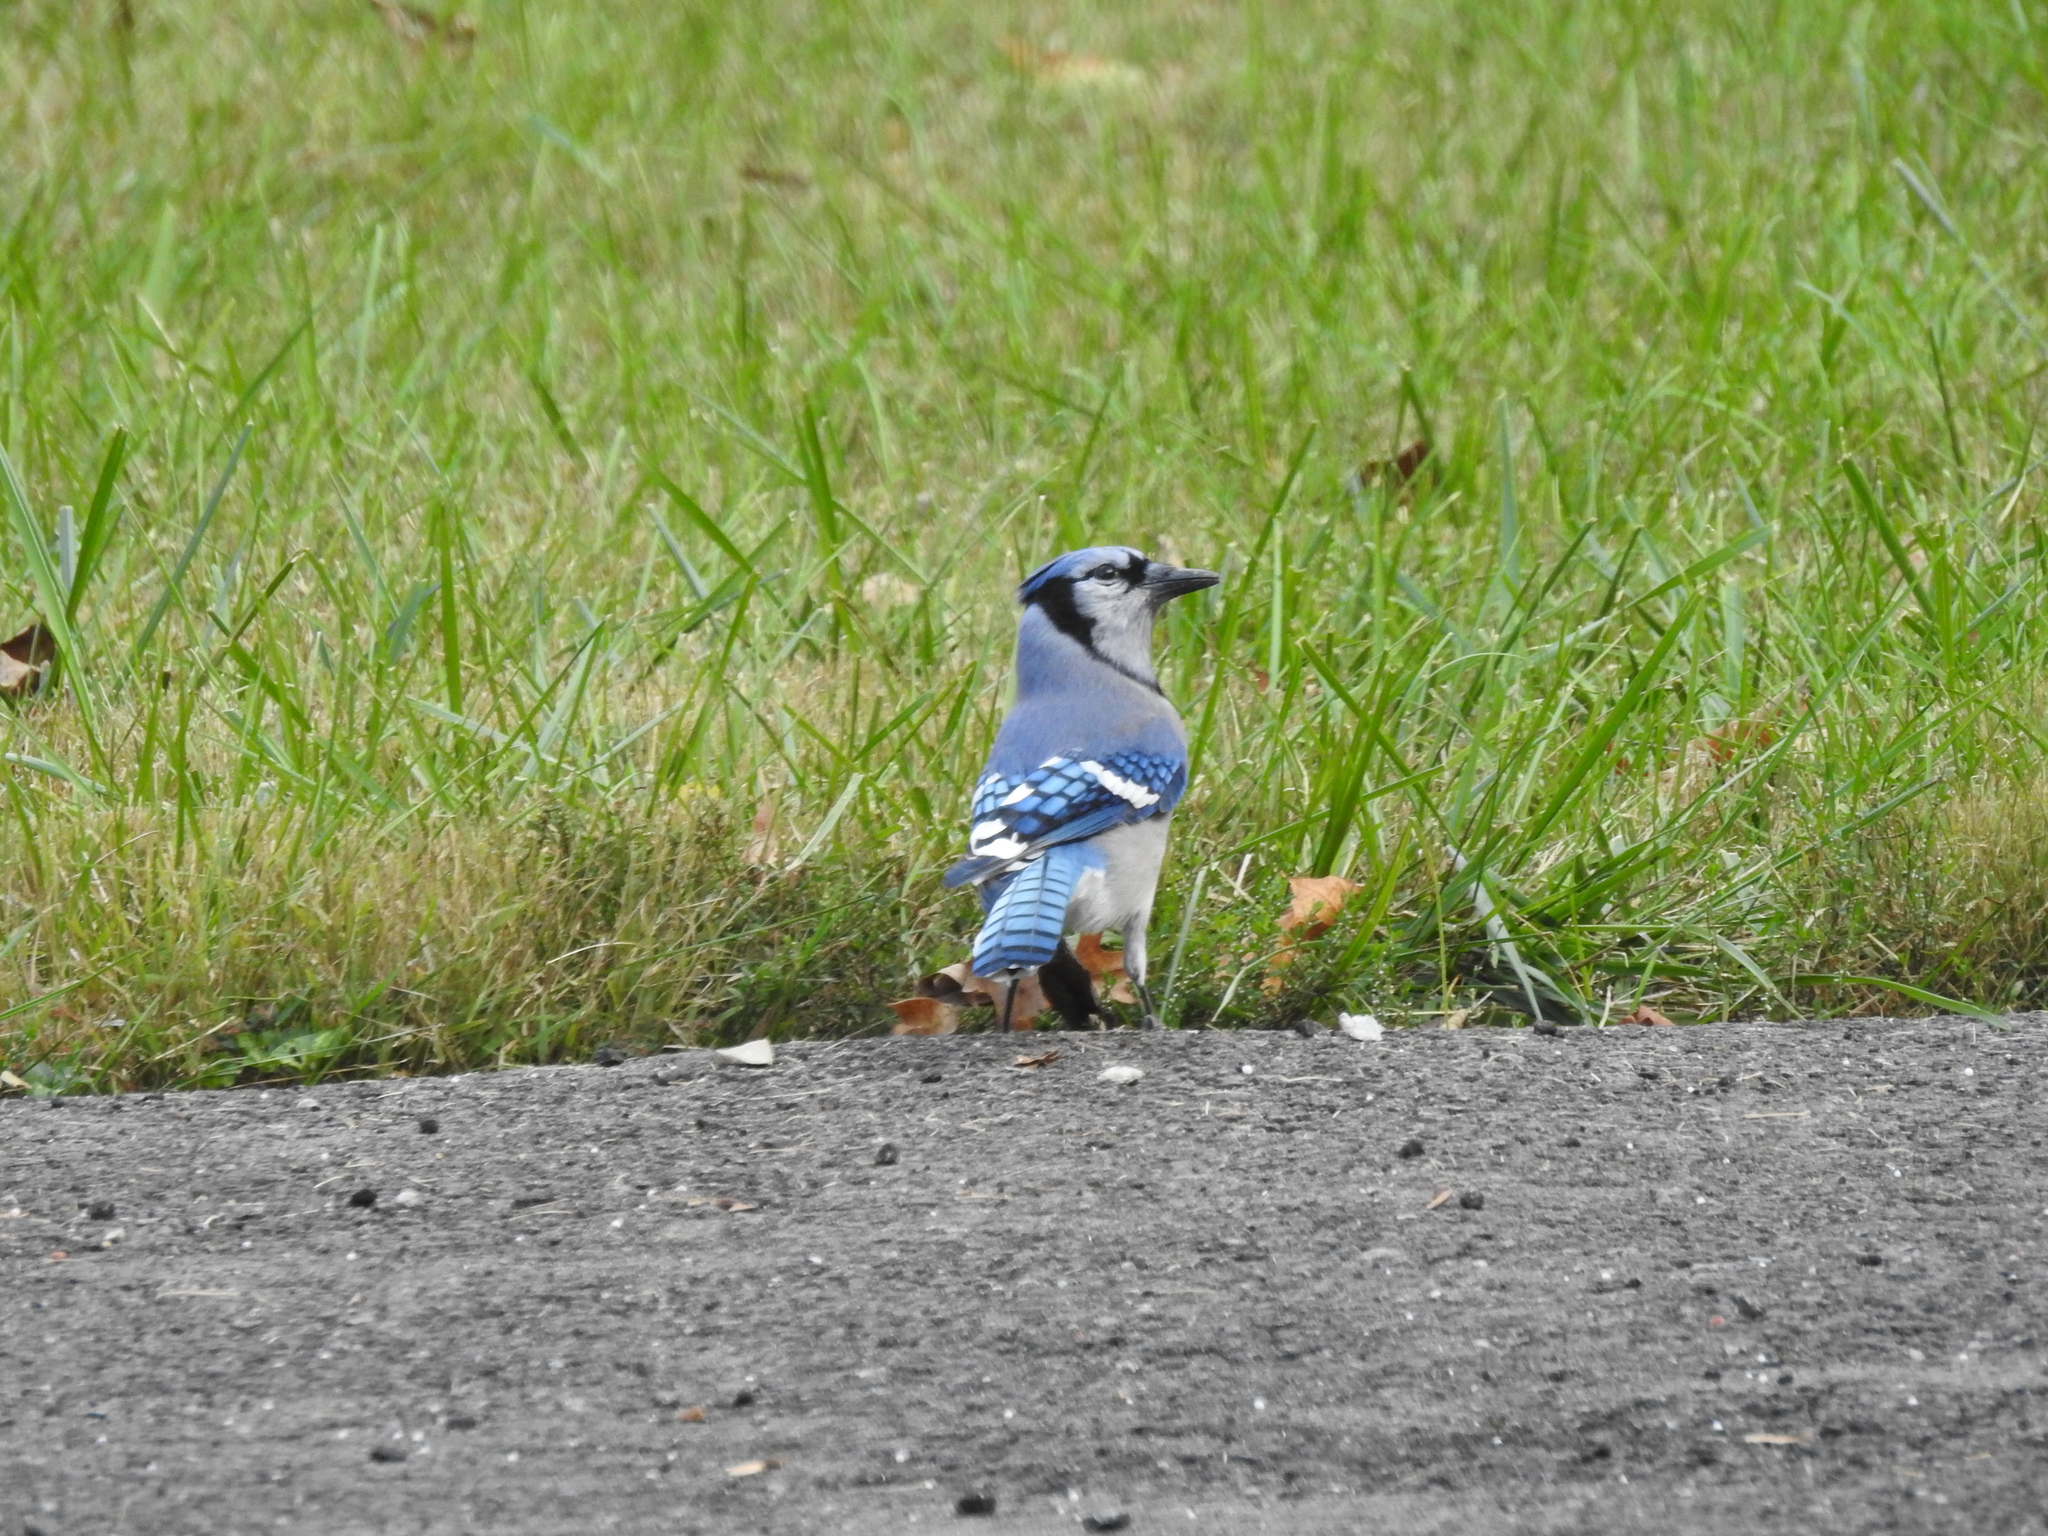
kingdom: Animalia
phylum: Chordata
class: Aves
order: Passeriformes
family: Corvidae
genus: Cyanocitta
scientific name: Cyanocitta cristata
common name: Blue jay
